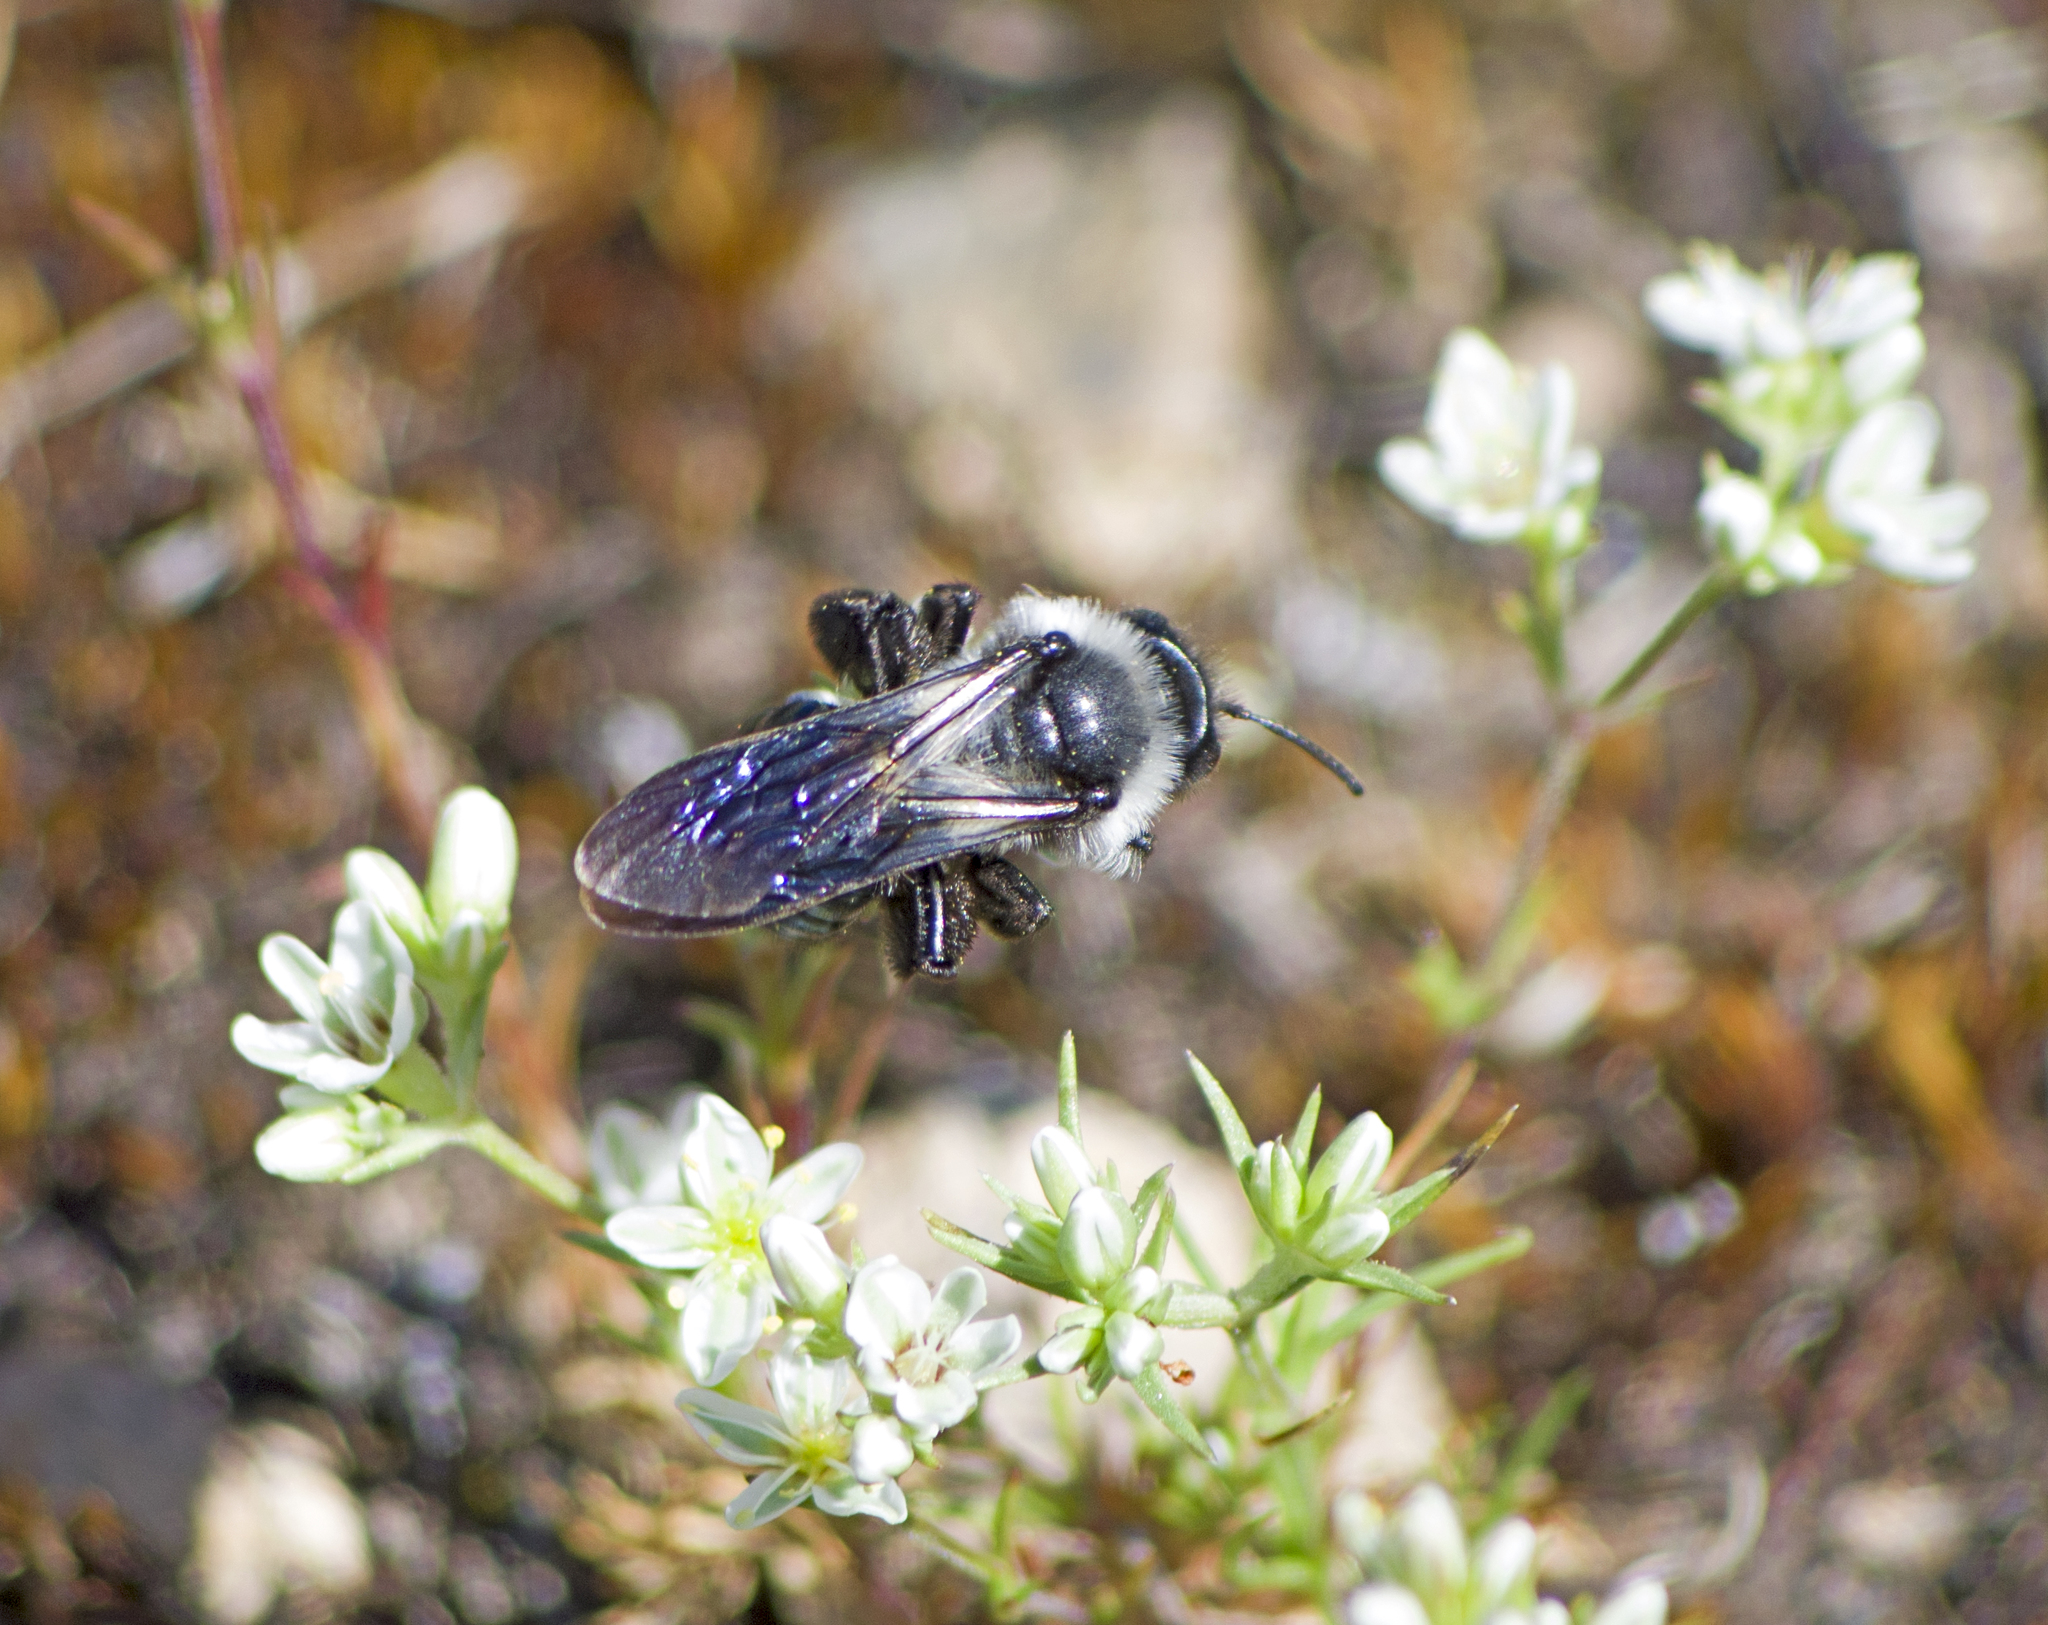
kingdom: Animalia
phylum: Arthropoda
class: Insecta
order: Hymenoptera
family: Andrenidae
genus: Andrena
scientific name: Andrena cineraria
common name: Ashy mining bee
